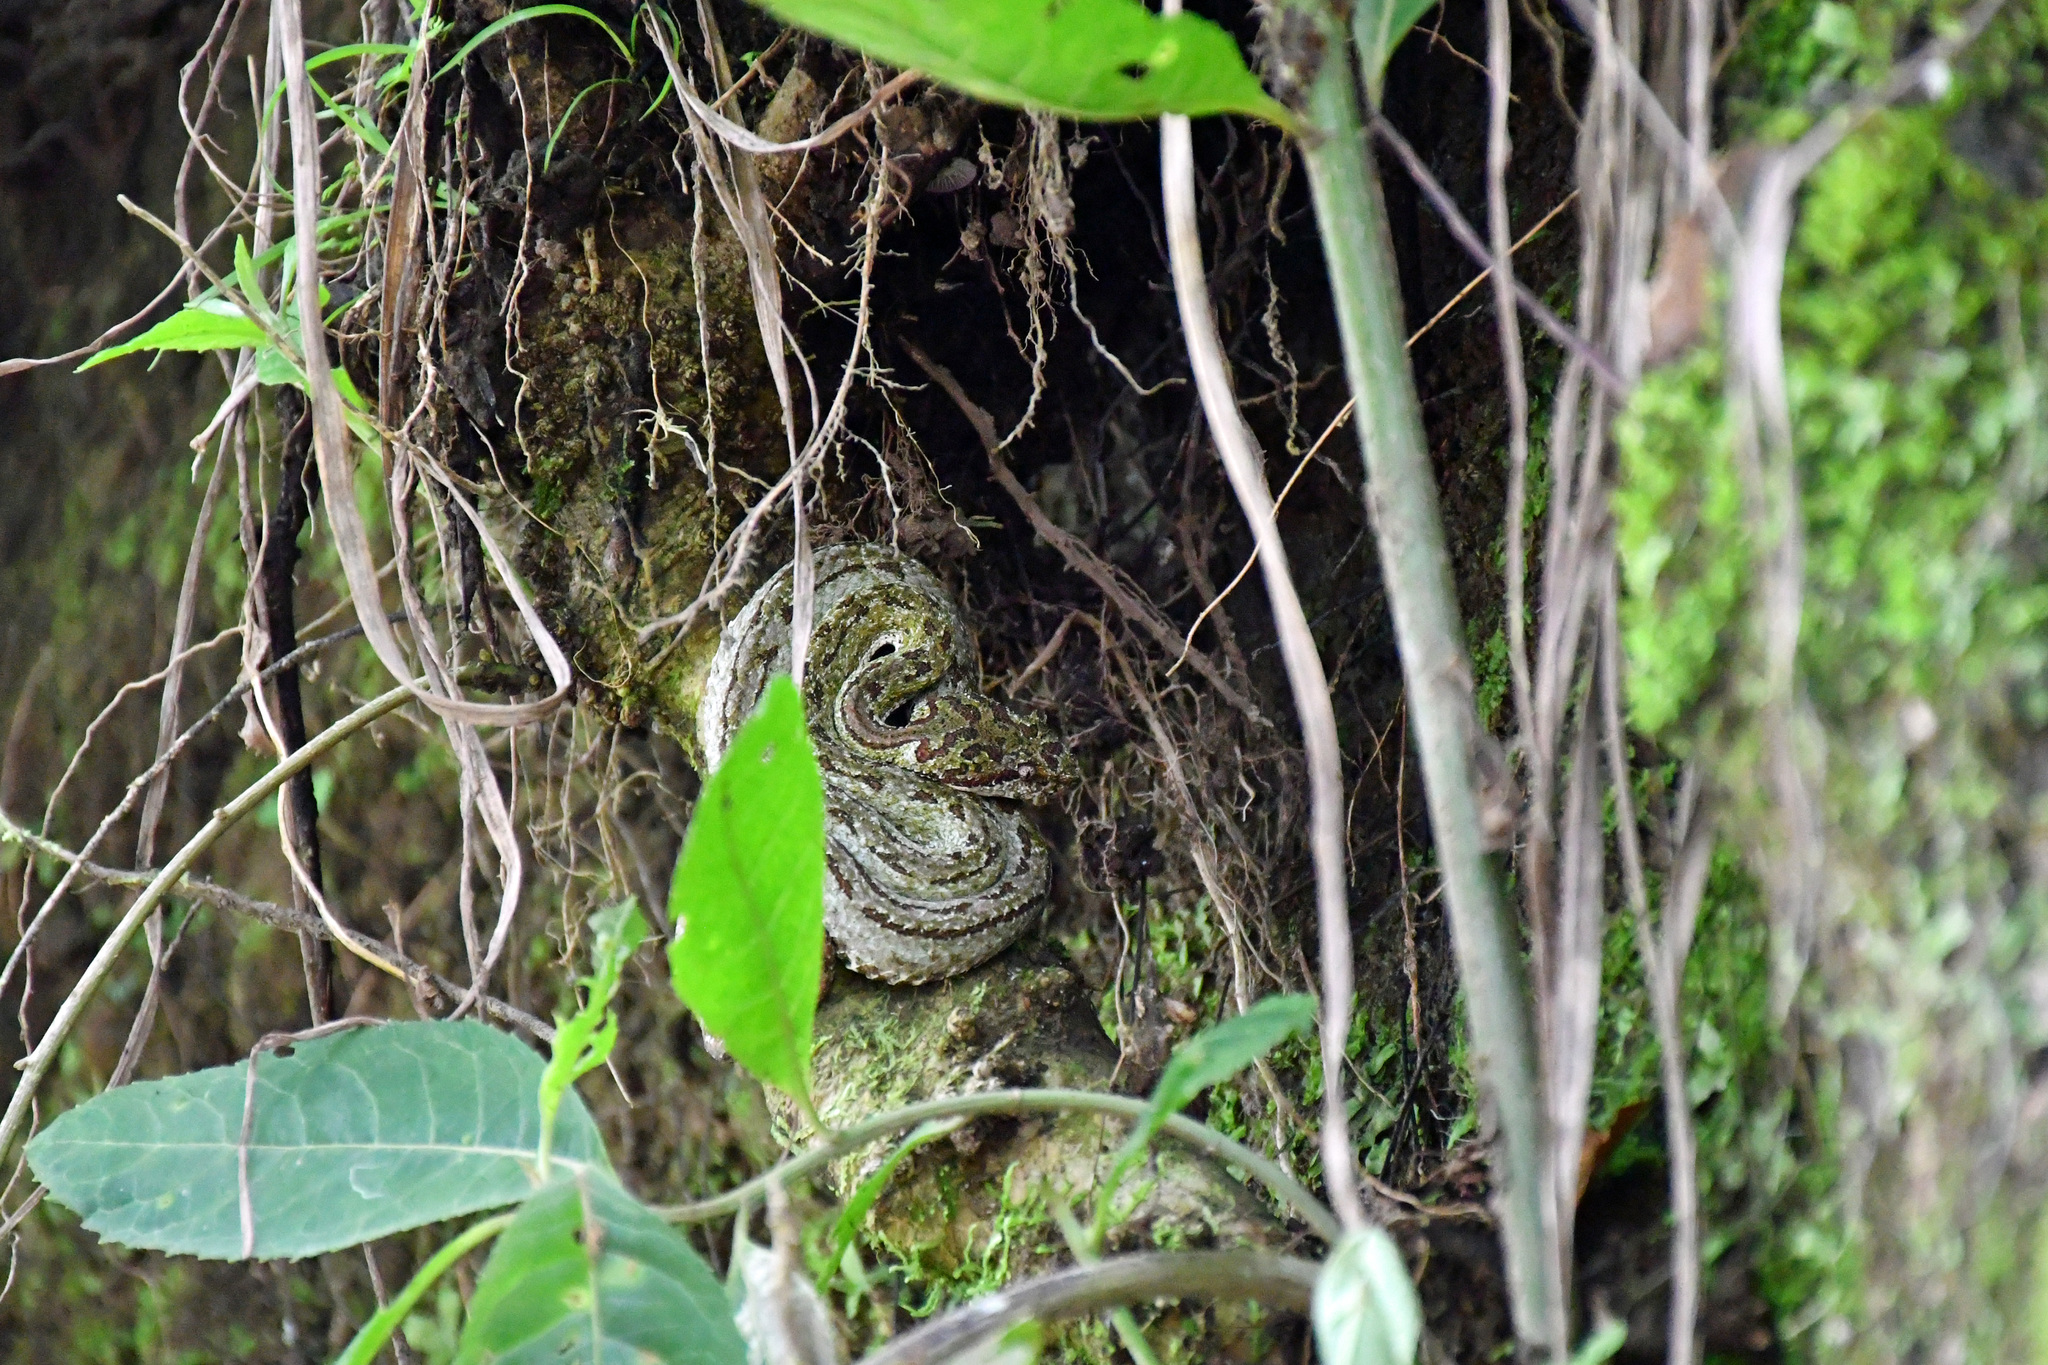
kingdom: Animalia
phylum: Chordata
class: Squamata
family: Viperidae
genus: Bothriechis
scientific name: Bothriechis schlegelii
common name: Eyelash viper
